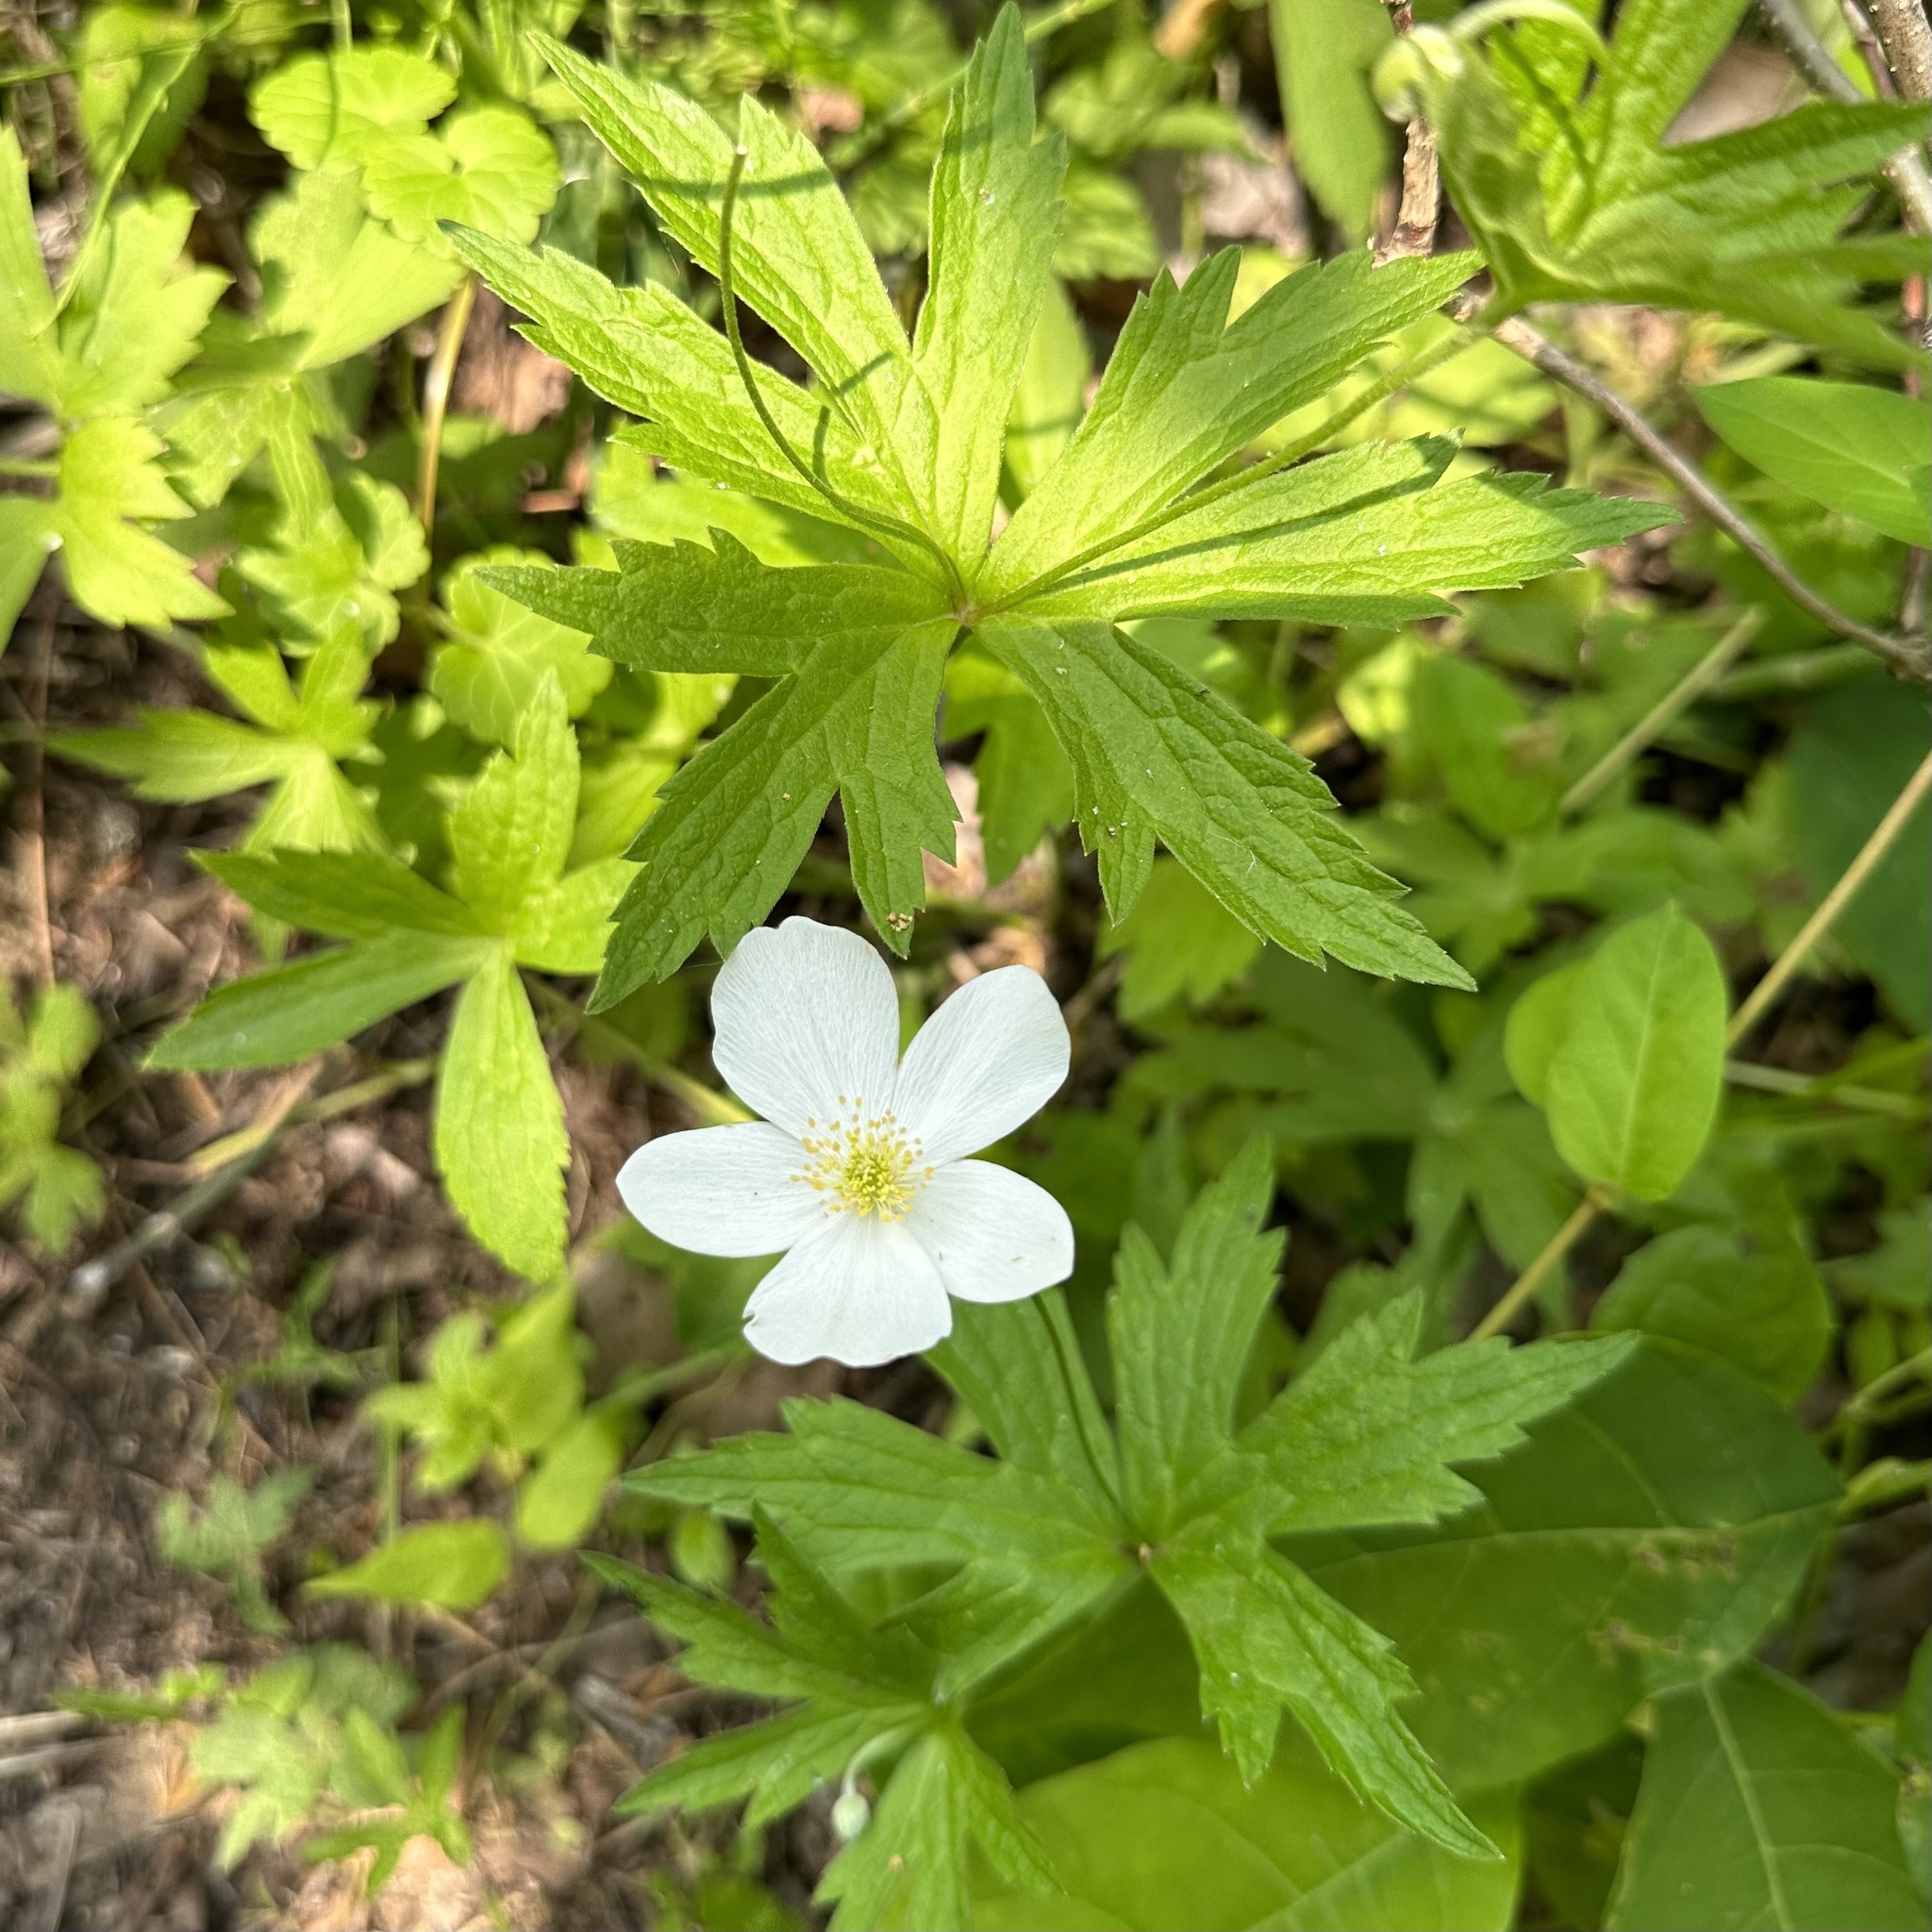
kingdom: Plantae
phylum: Tracheophyta
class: Magnoliopsida
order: Ranunculales
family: Ranunculaceae
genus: Anemonastrum
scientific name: Anemonastrum canadense
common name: Canada anemone
